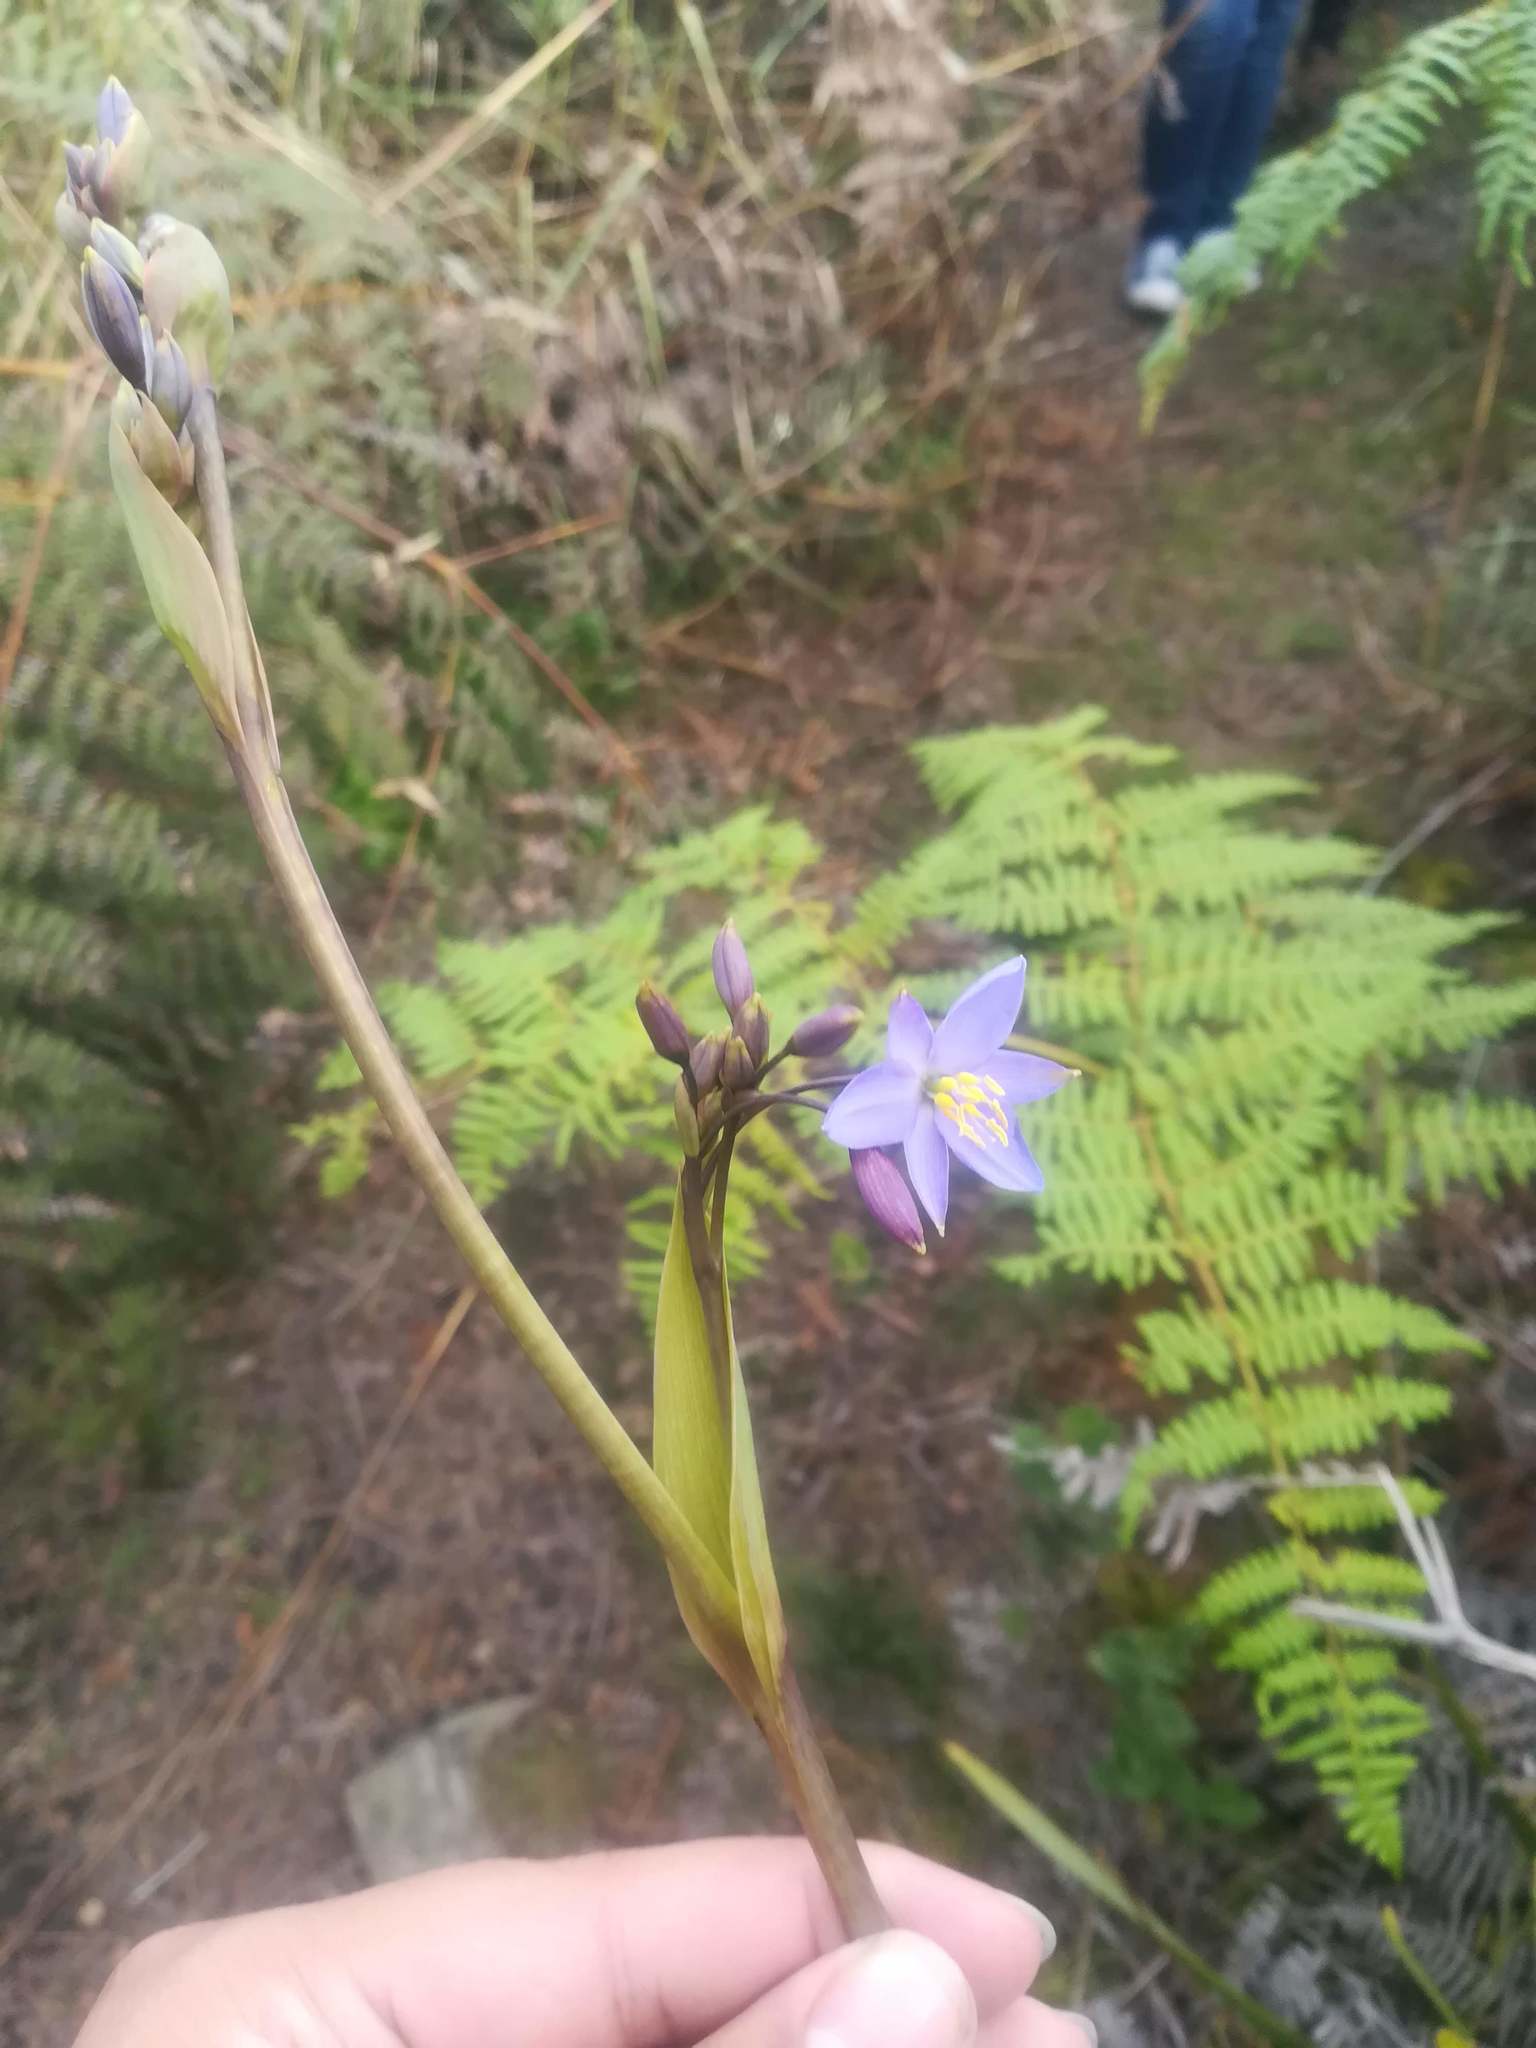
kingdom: Plantae
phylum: Tracheophyta
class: Liliopsida
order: Asparagales
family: Asphodelaceae
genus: Excremis
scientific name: Excremis coarctata
